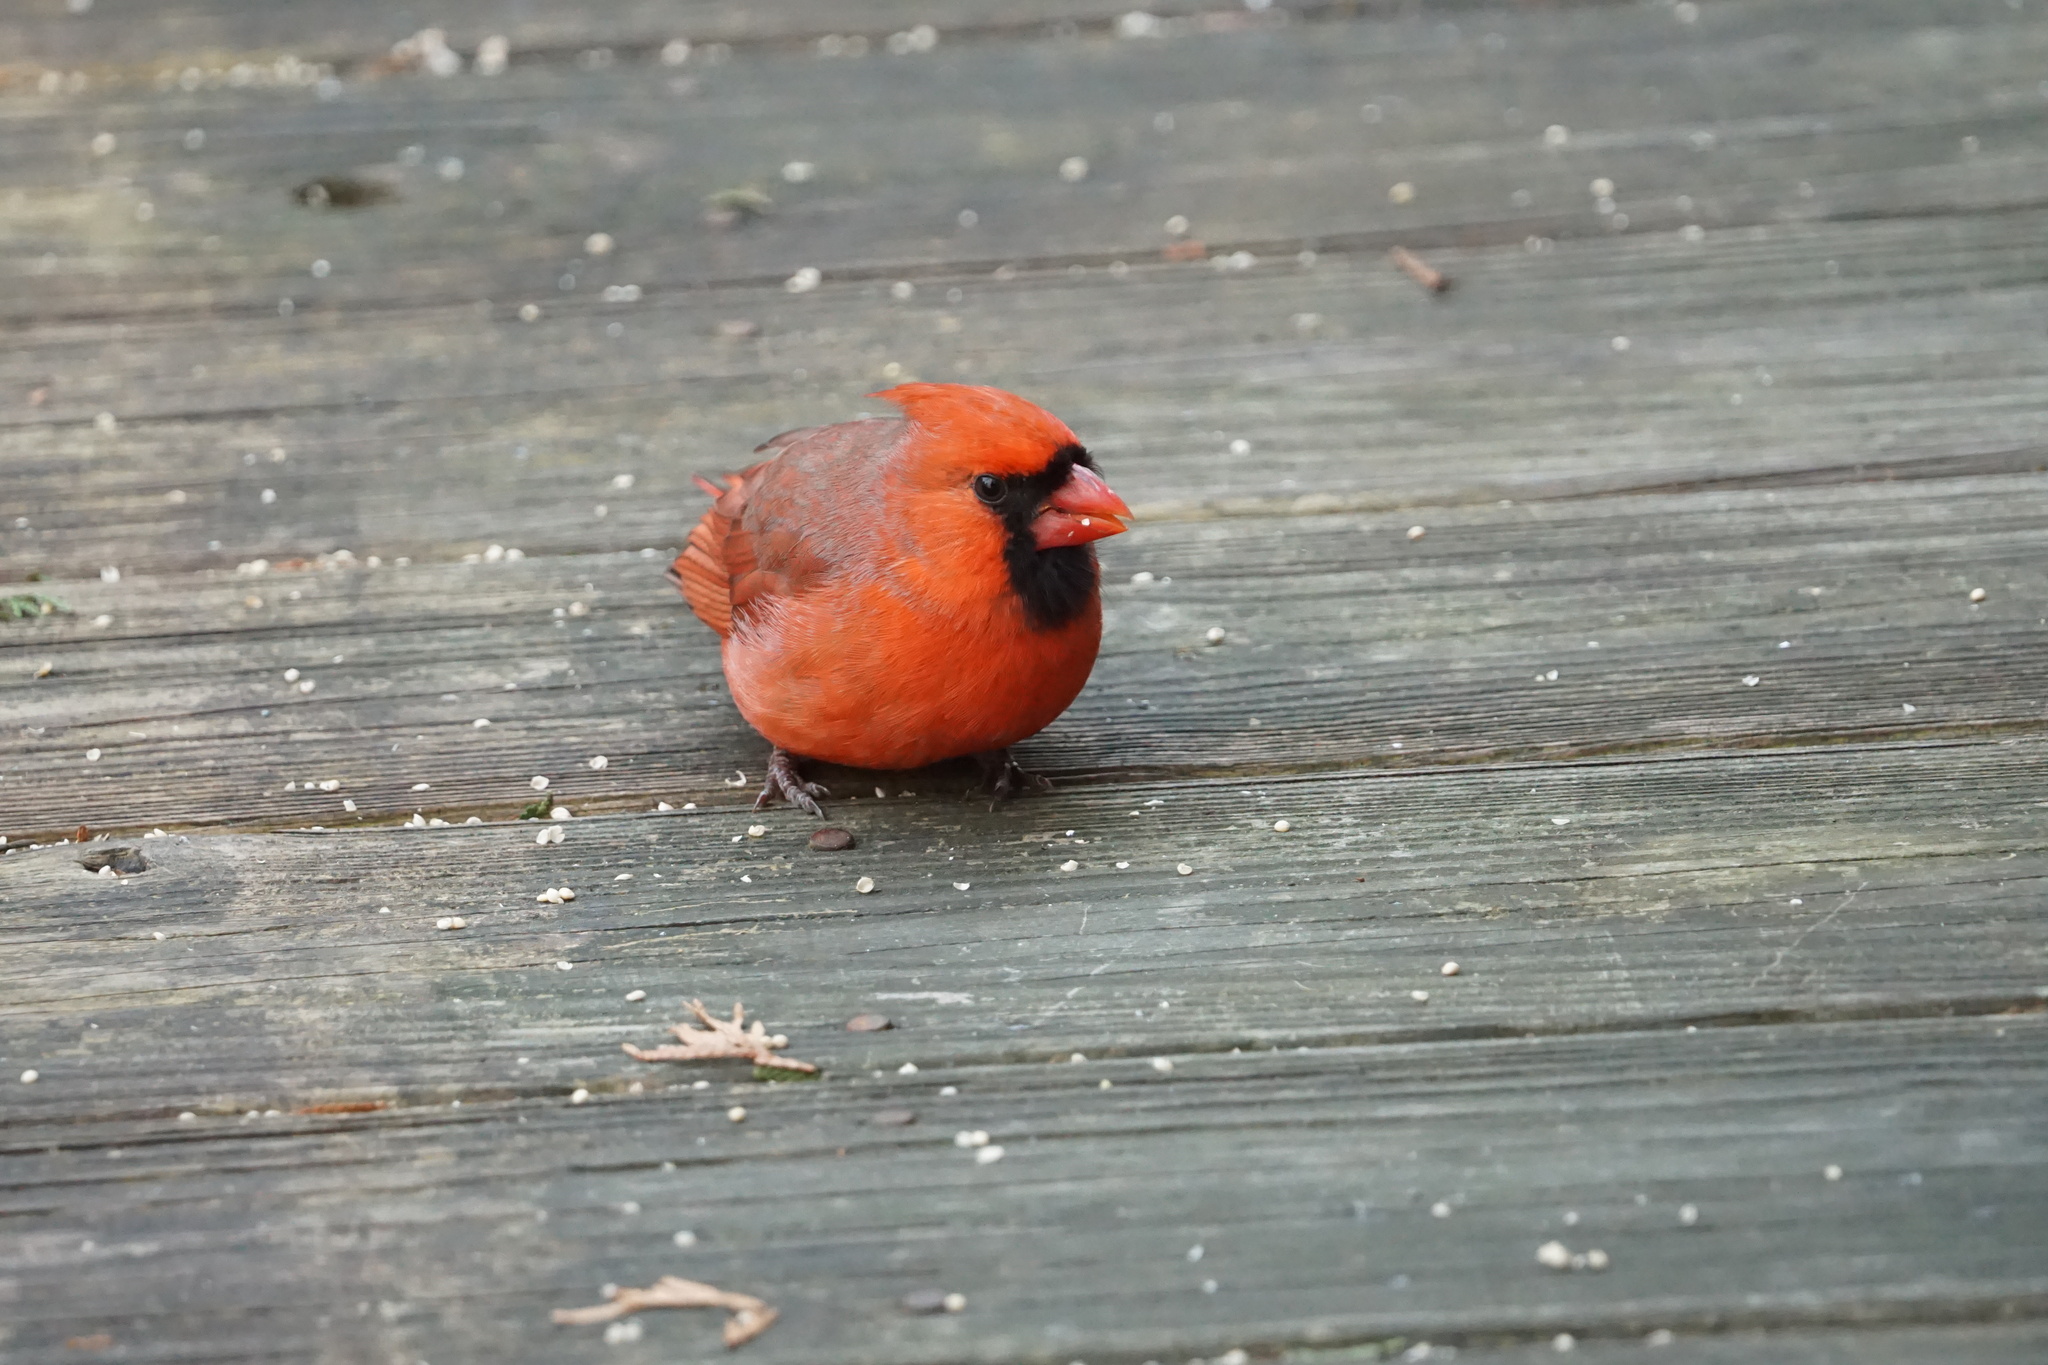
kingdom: Animalia
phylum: Chordata
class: Aves
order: Passeriformes
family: Cardinalidae
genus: Cardinalis
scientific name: Cardinalis cardinalis
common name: Northern cardinal
